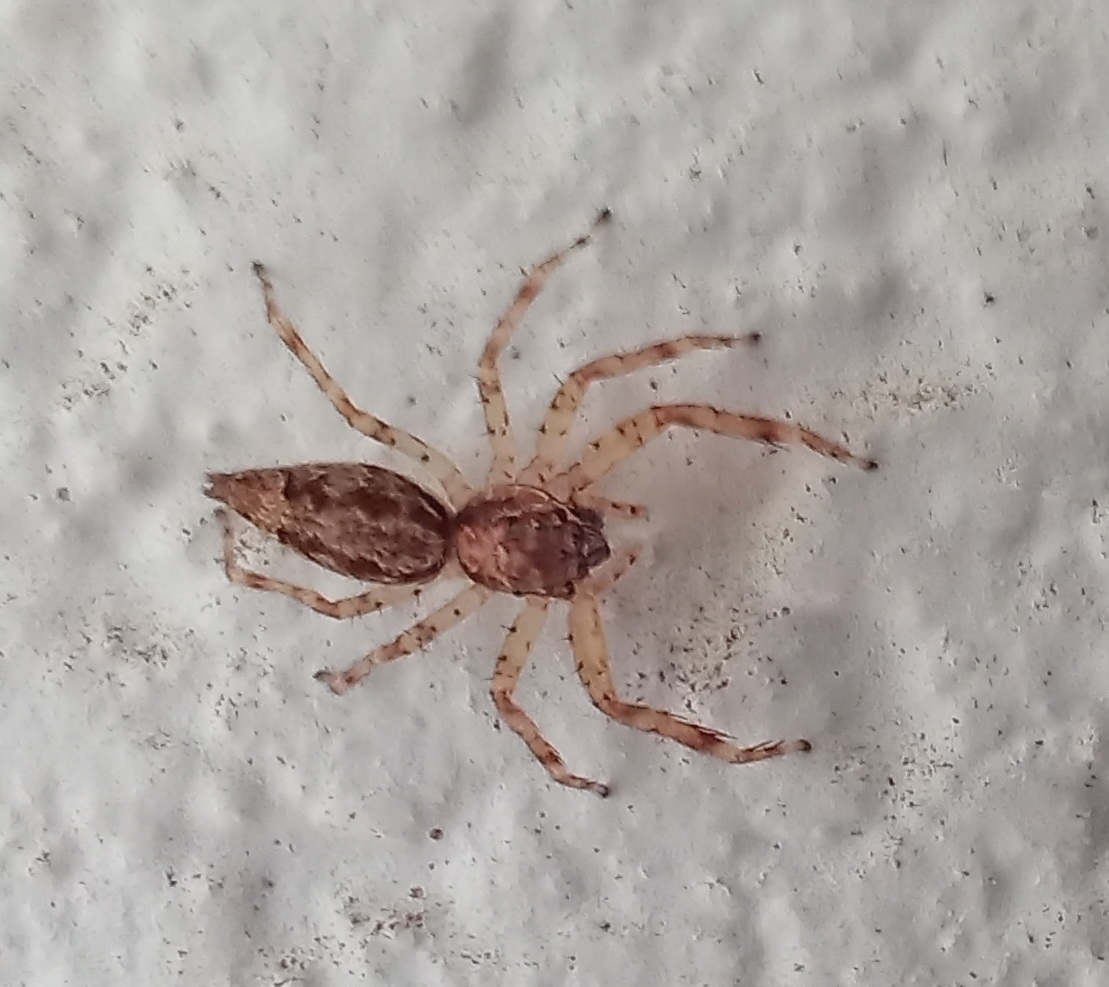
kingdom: Animalia
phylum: Arthropoda
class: Arachnida
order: Araneae
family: Salticidae
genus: Helpis
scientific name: Helpis minitabunda
